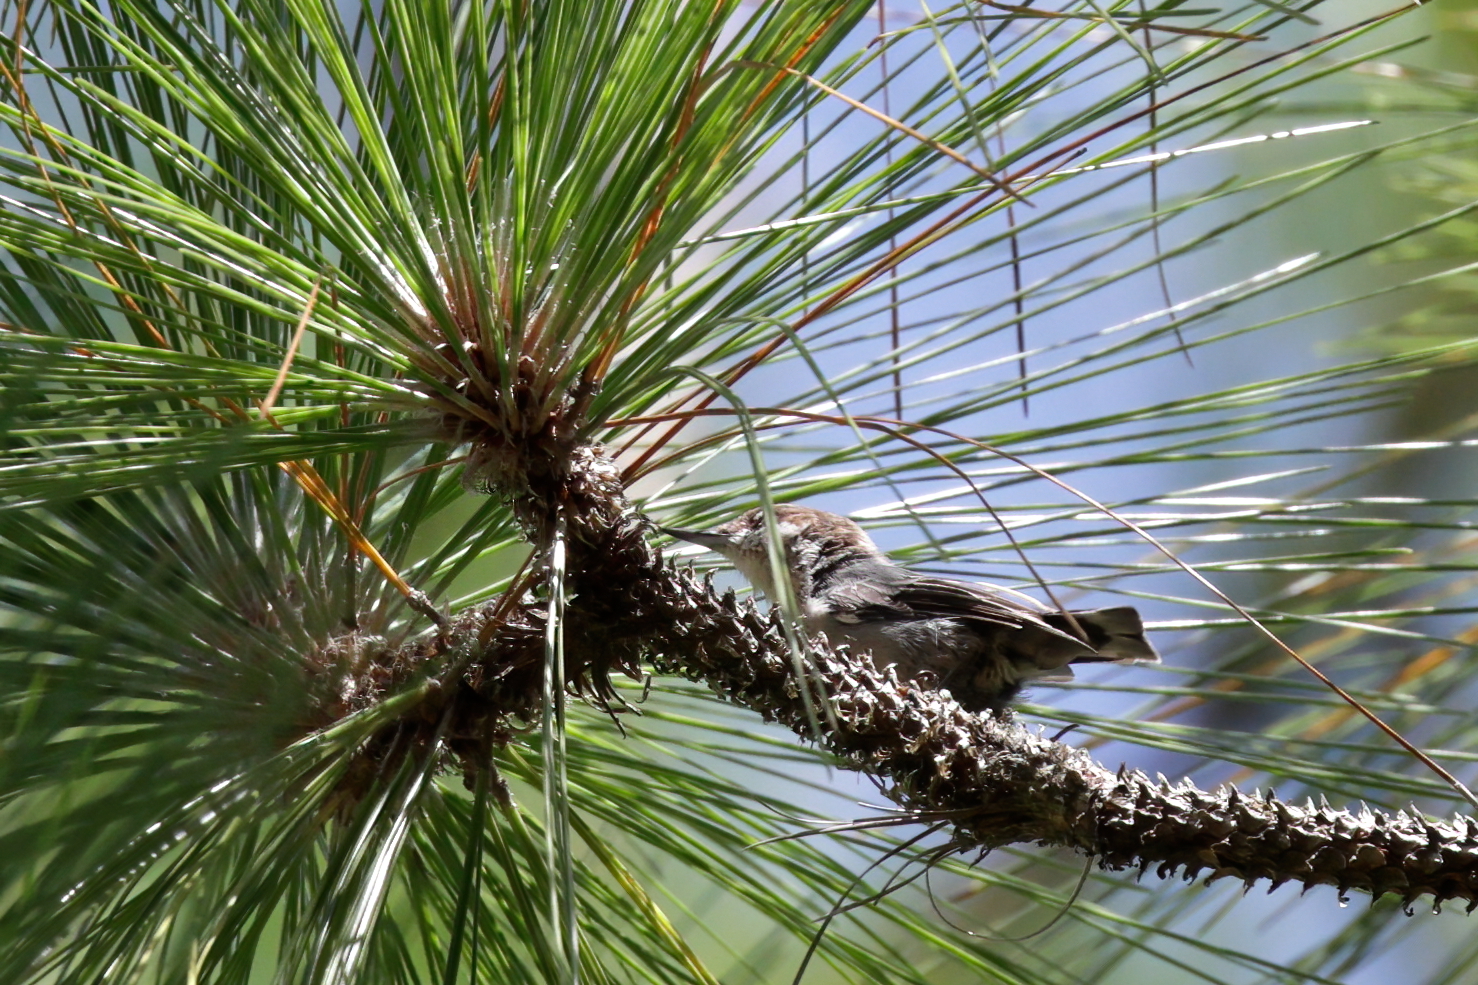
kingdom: Animalia
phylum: Chordata
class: Aves
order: Passeriformes
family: Sittidae
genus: Sitta
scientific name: Sitta pusilla
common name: Brown-headed nuthatch
